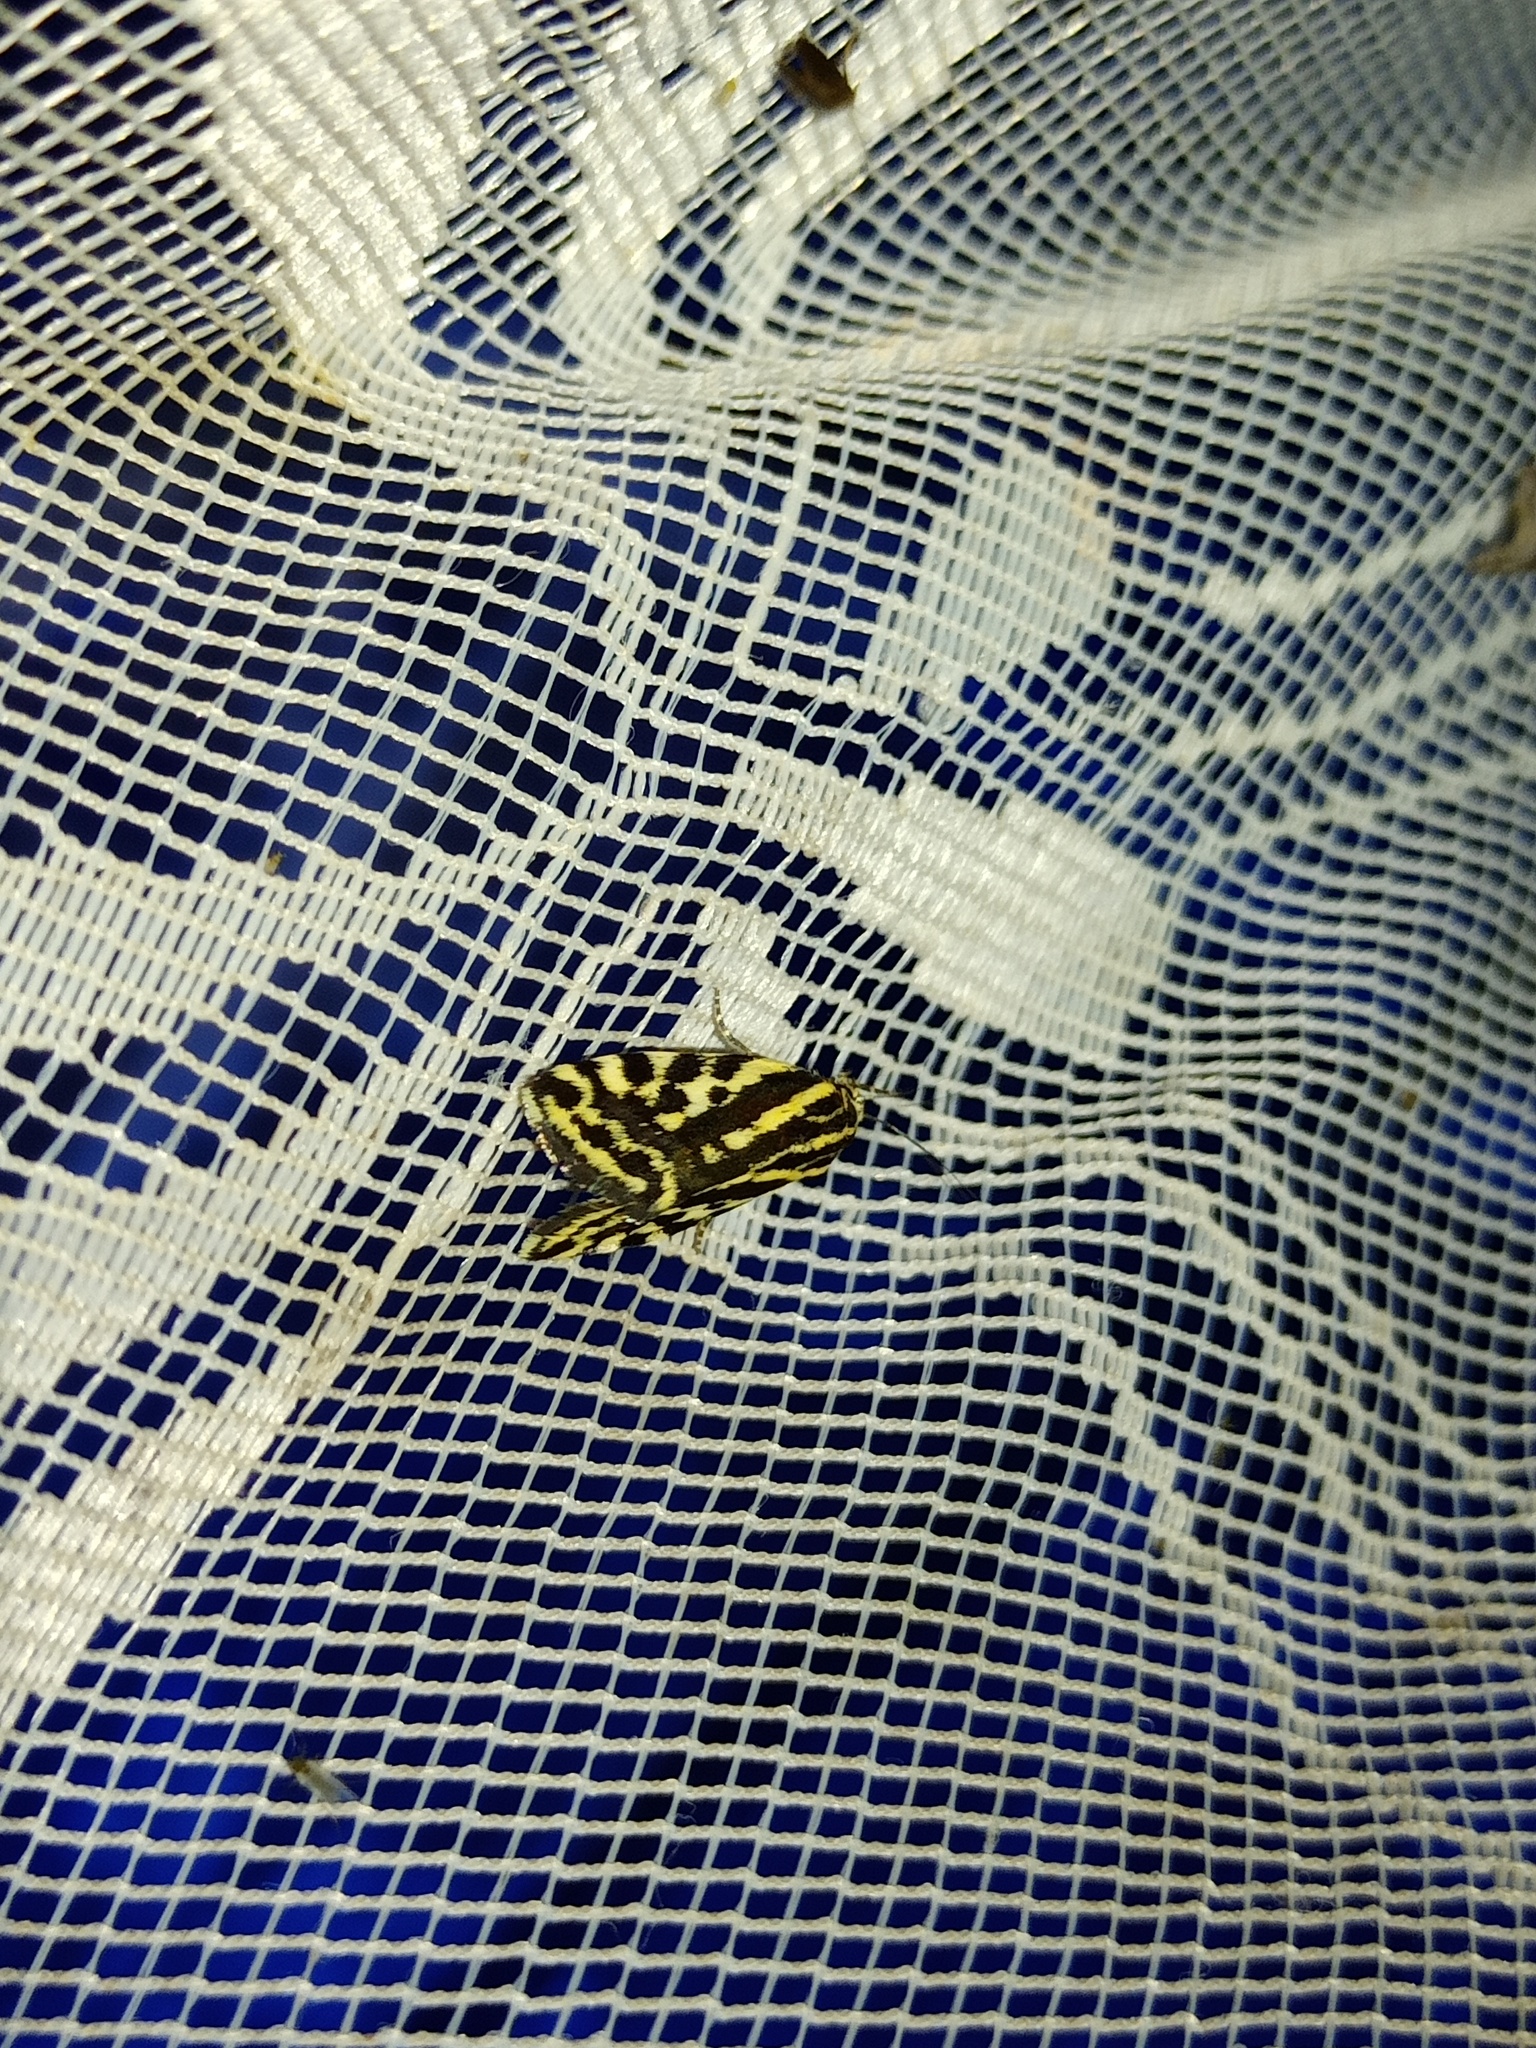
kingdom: Animalia
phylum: Arthropoda
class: Insecta
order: Lepidoptera
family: Noctuidae
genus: Acontia
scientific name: Acontia trabealis
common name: Spotted sulphur
